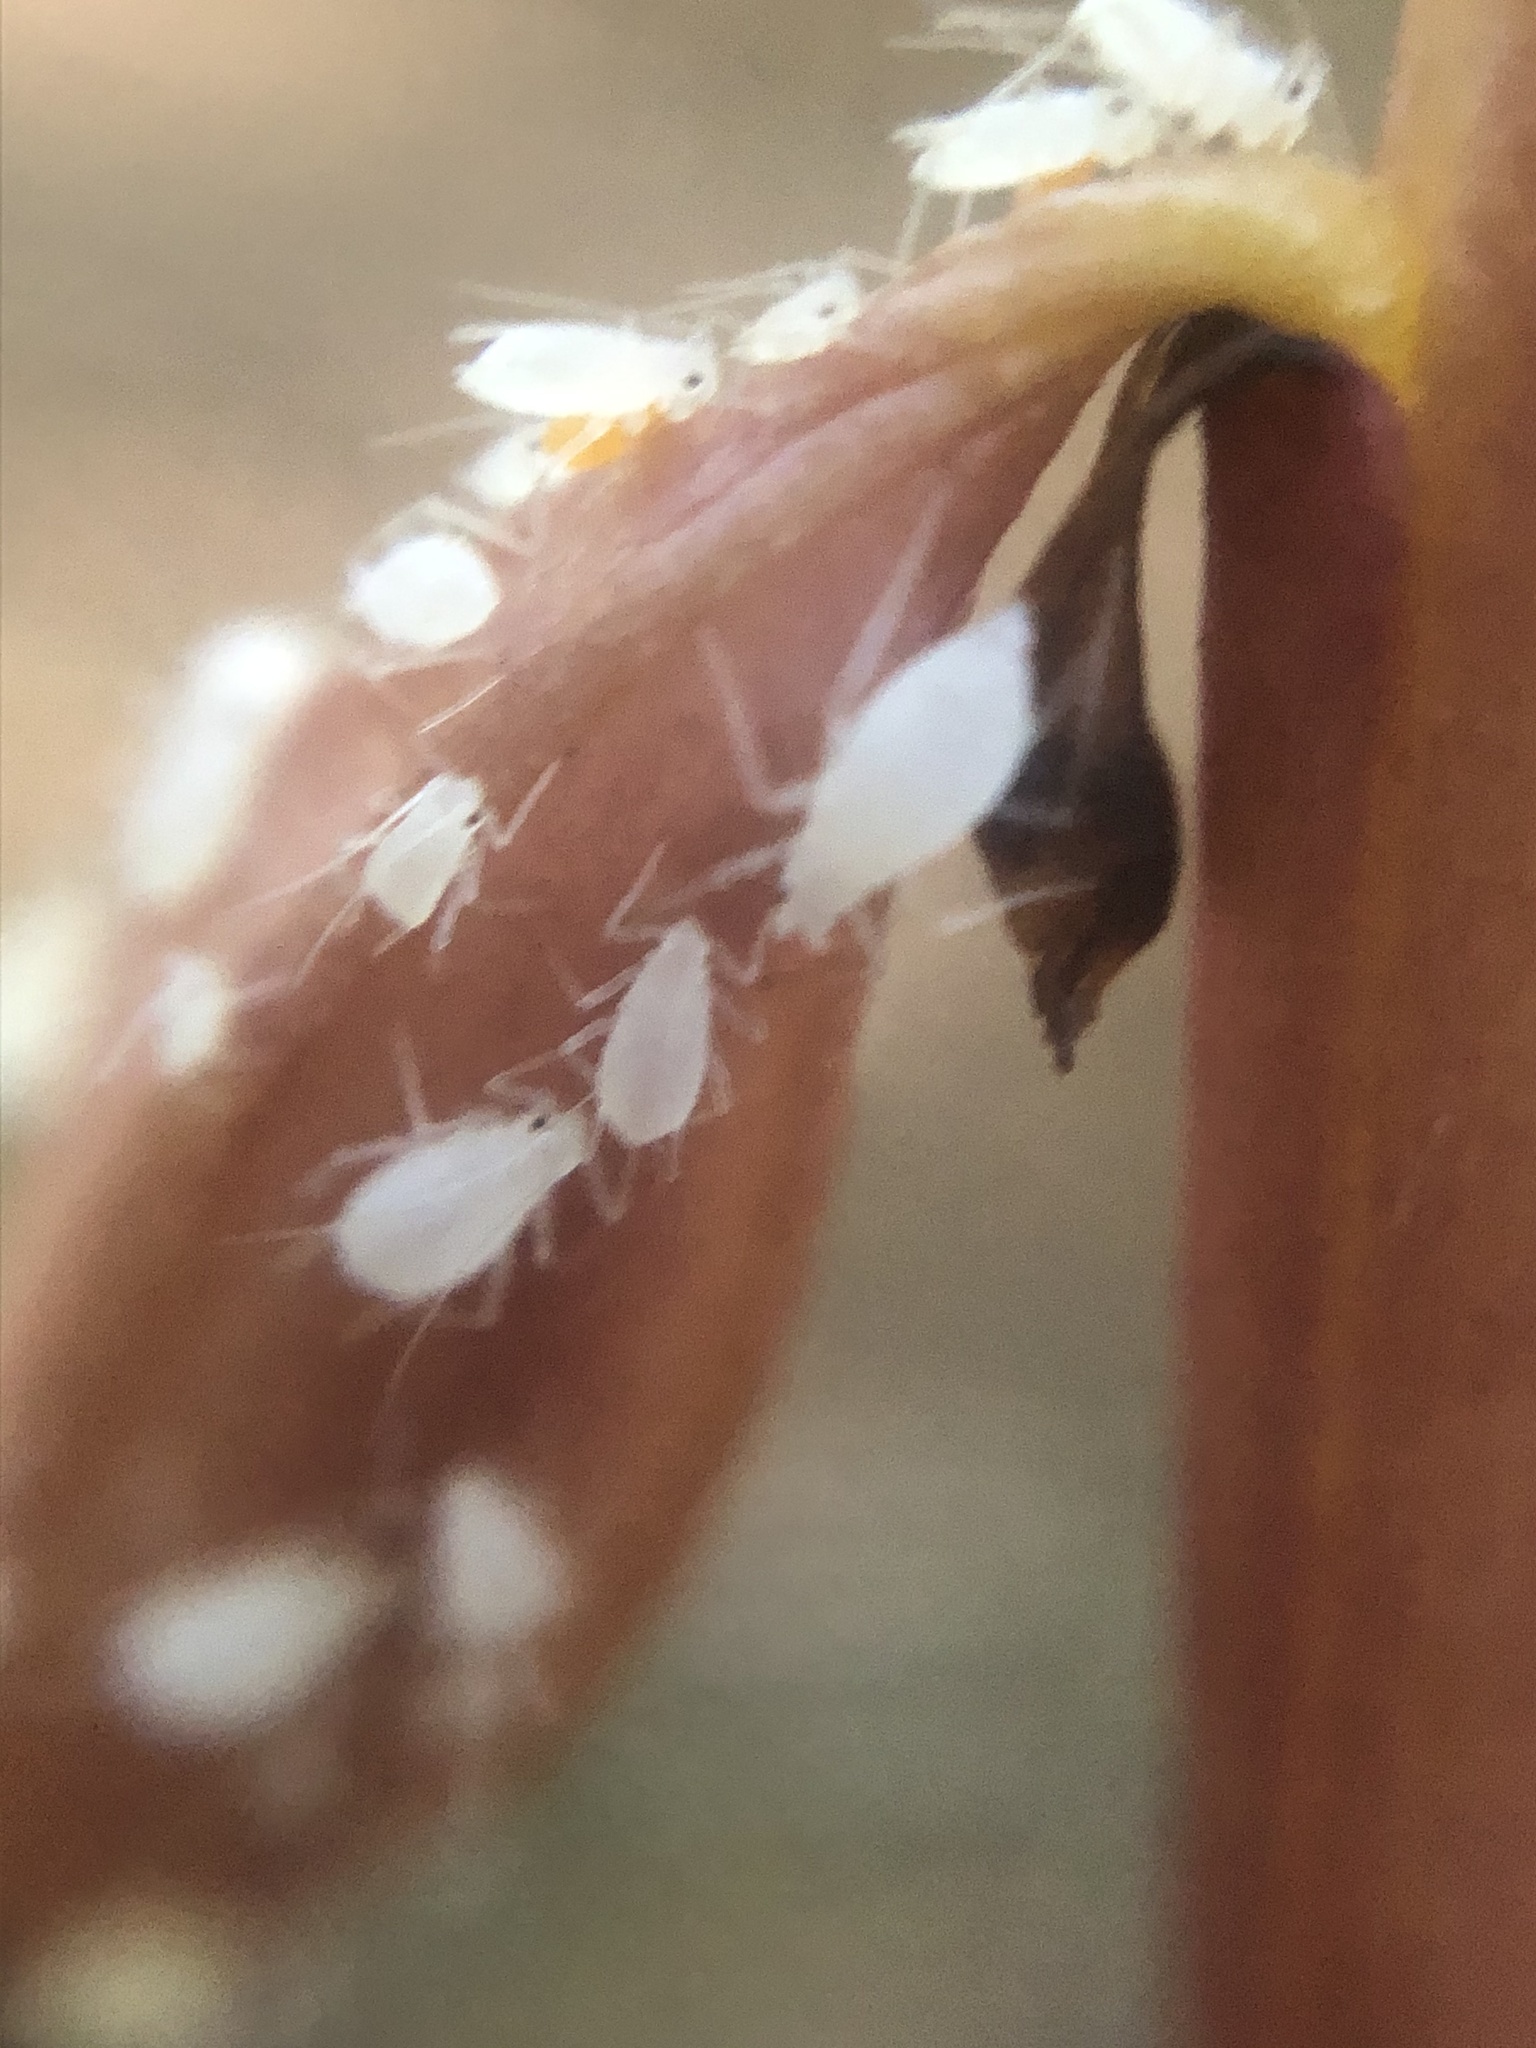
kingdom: Animalia
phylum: Arthropoda
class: Insecta
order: Hemiptera
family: Aphididae
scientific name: Aphididae
